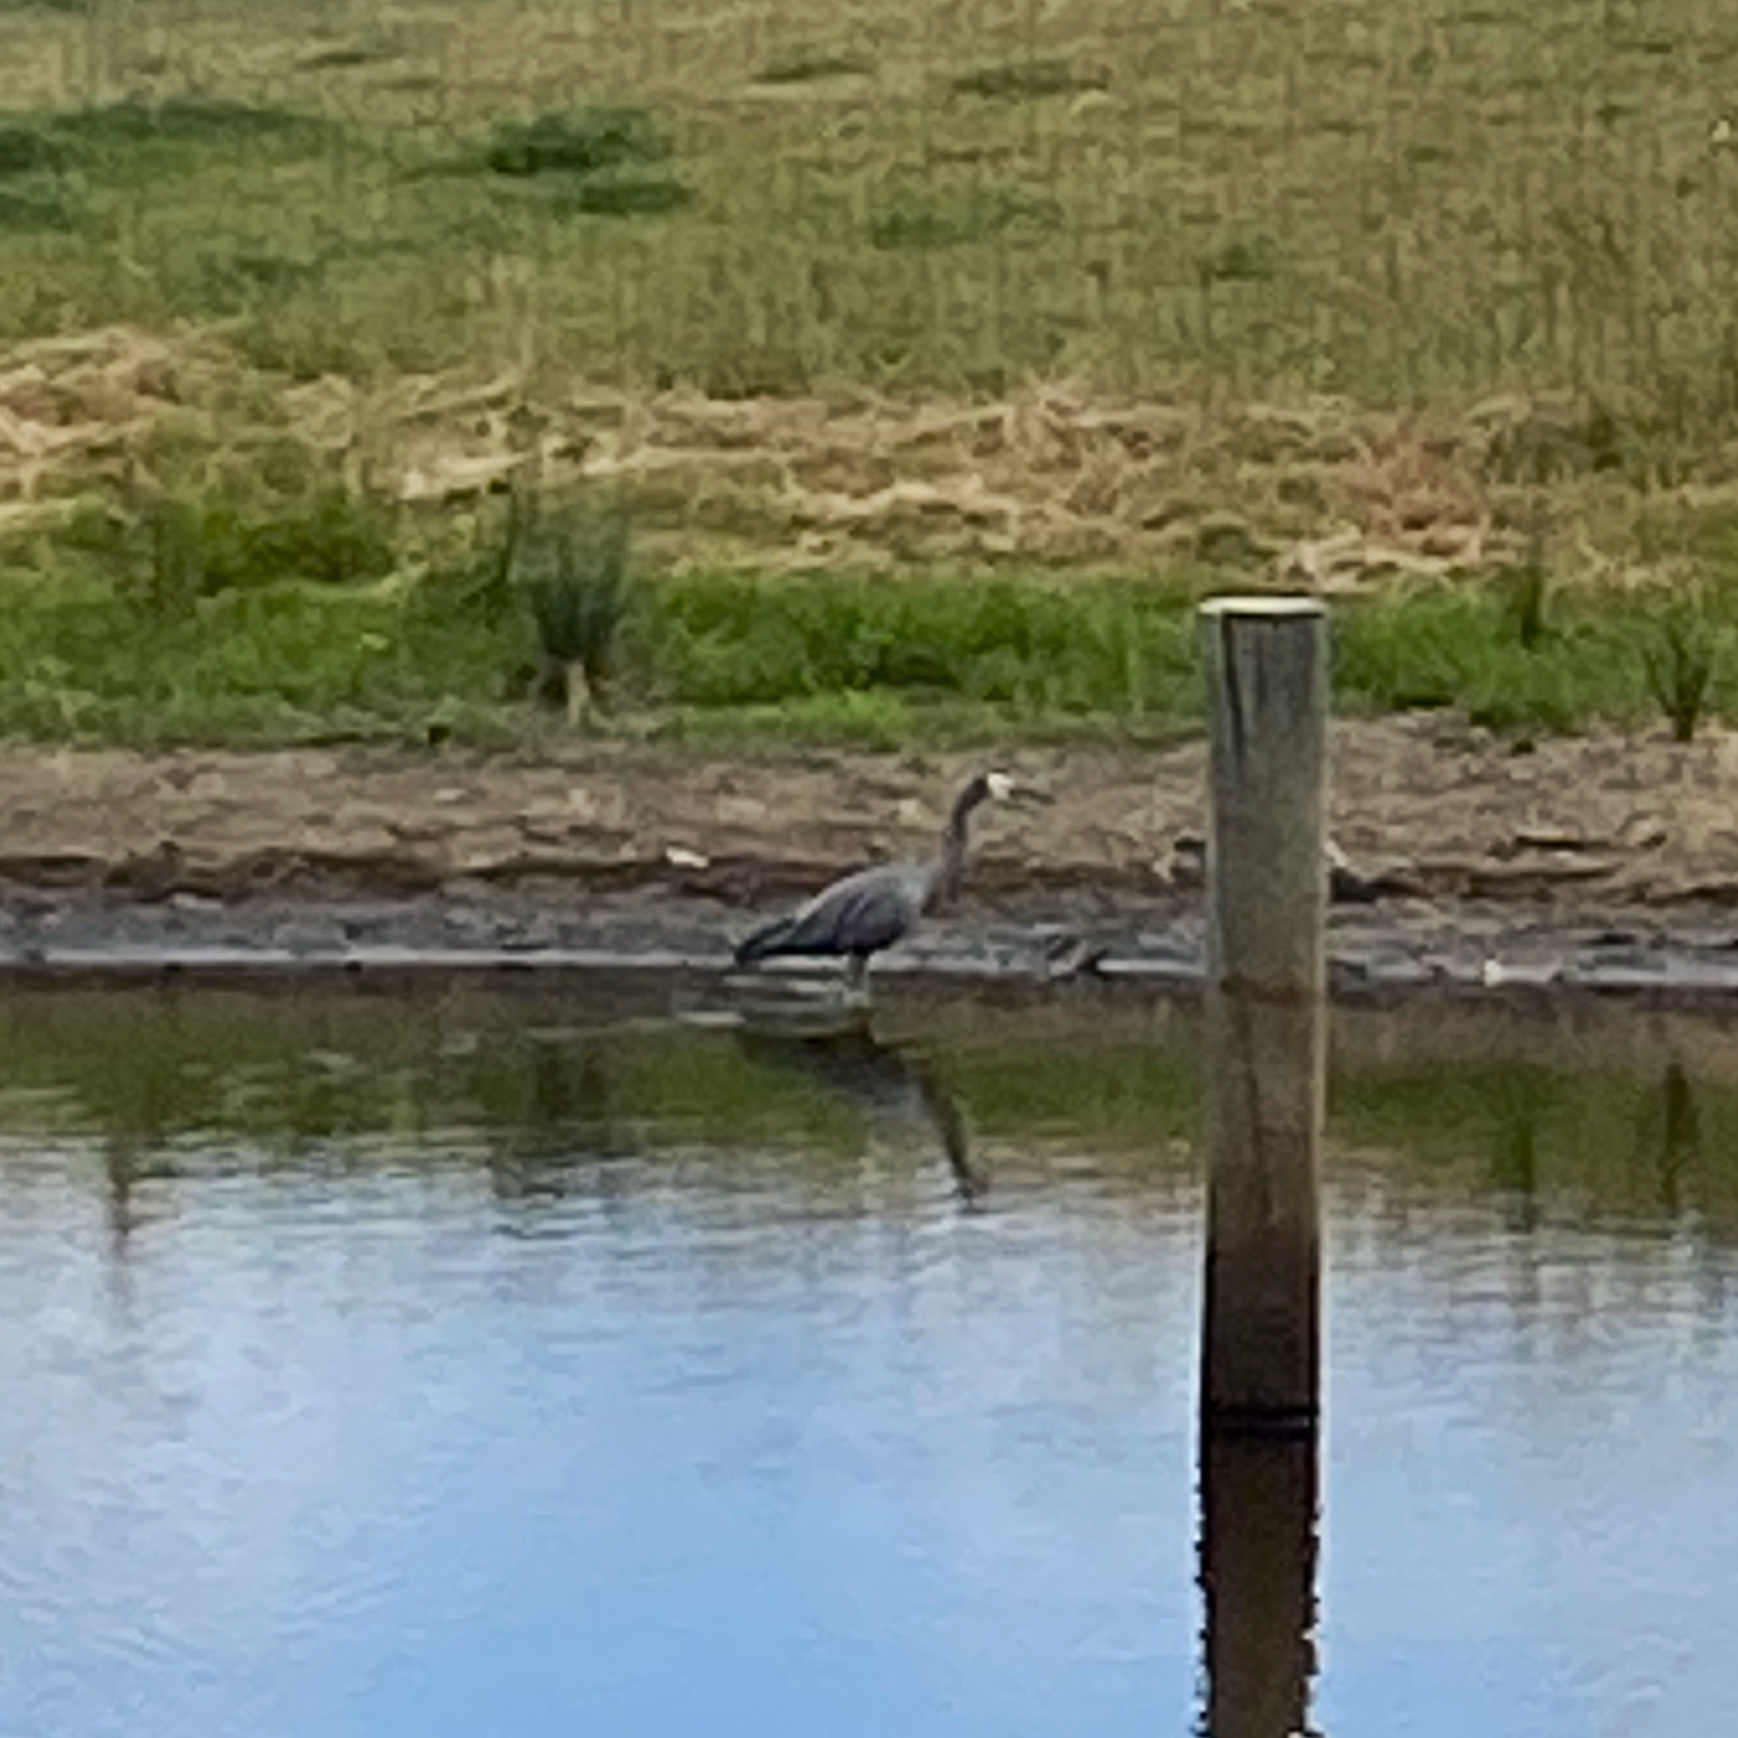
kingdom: Animalia
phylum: Chordata
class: Aves
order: Pelecaniformes
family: Ardeidae
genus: Egretta
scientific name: Egretta novaehollandiae
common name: White-faced heron
